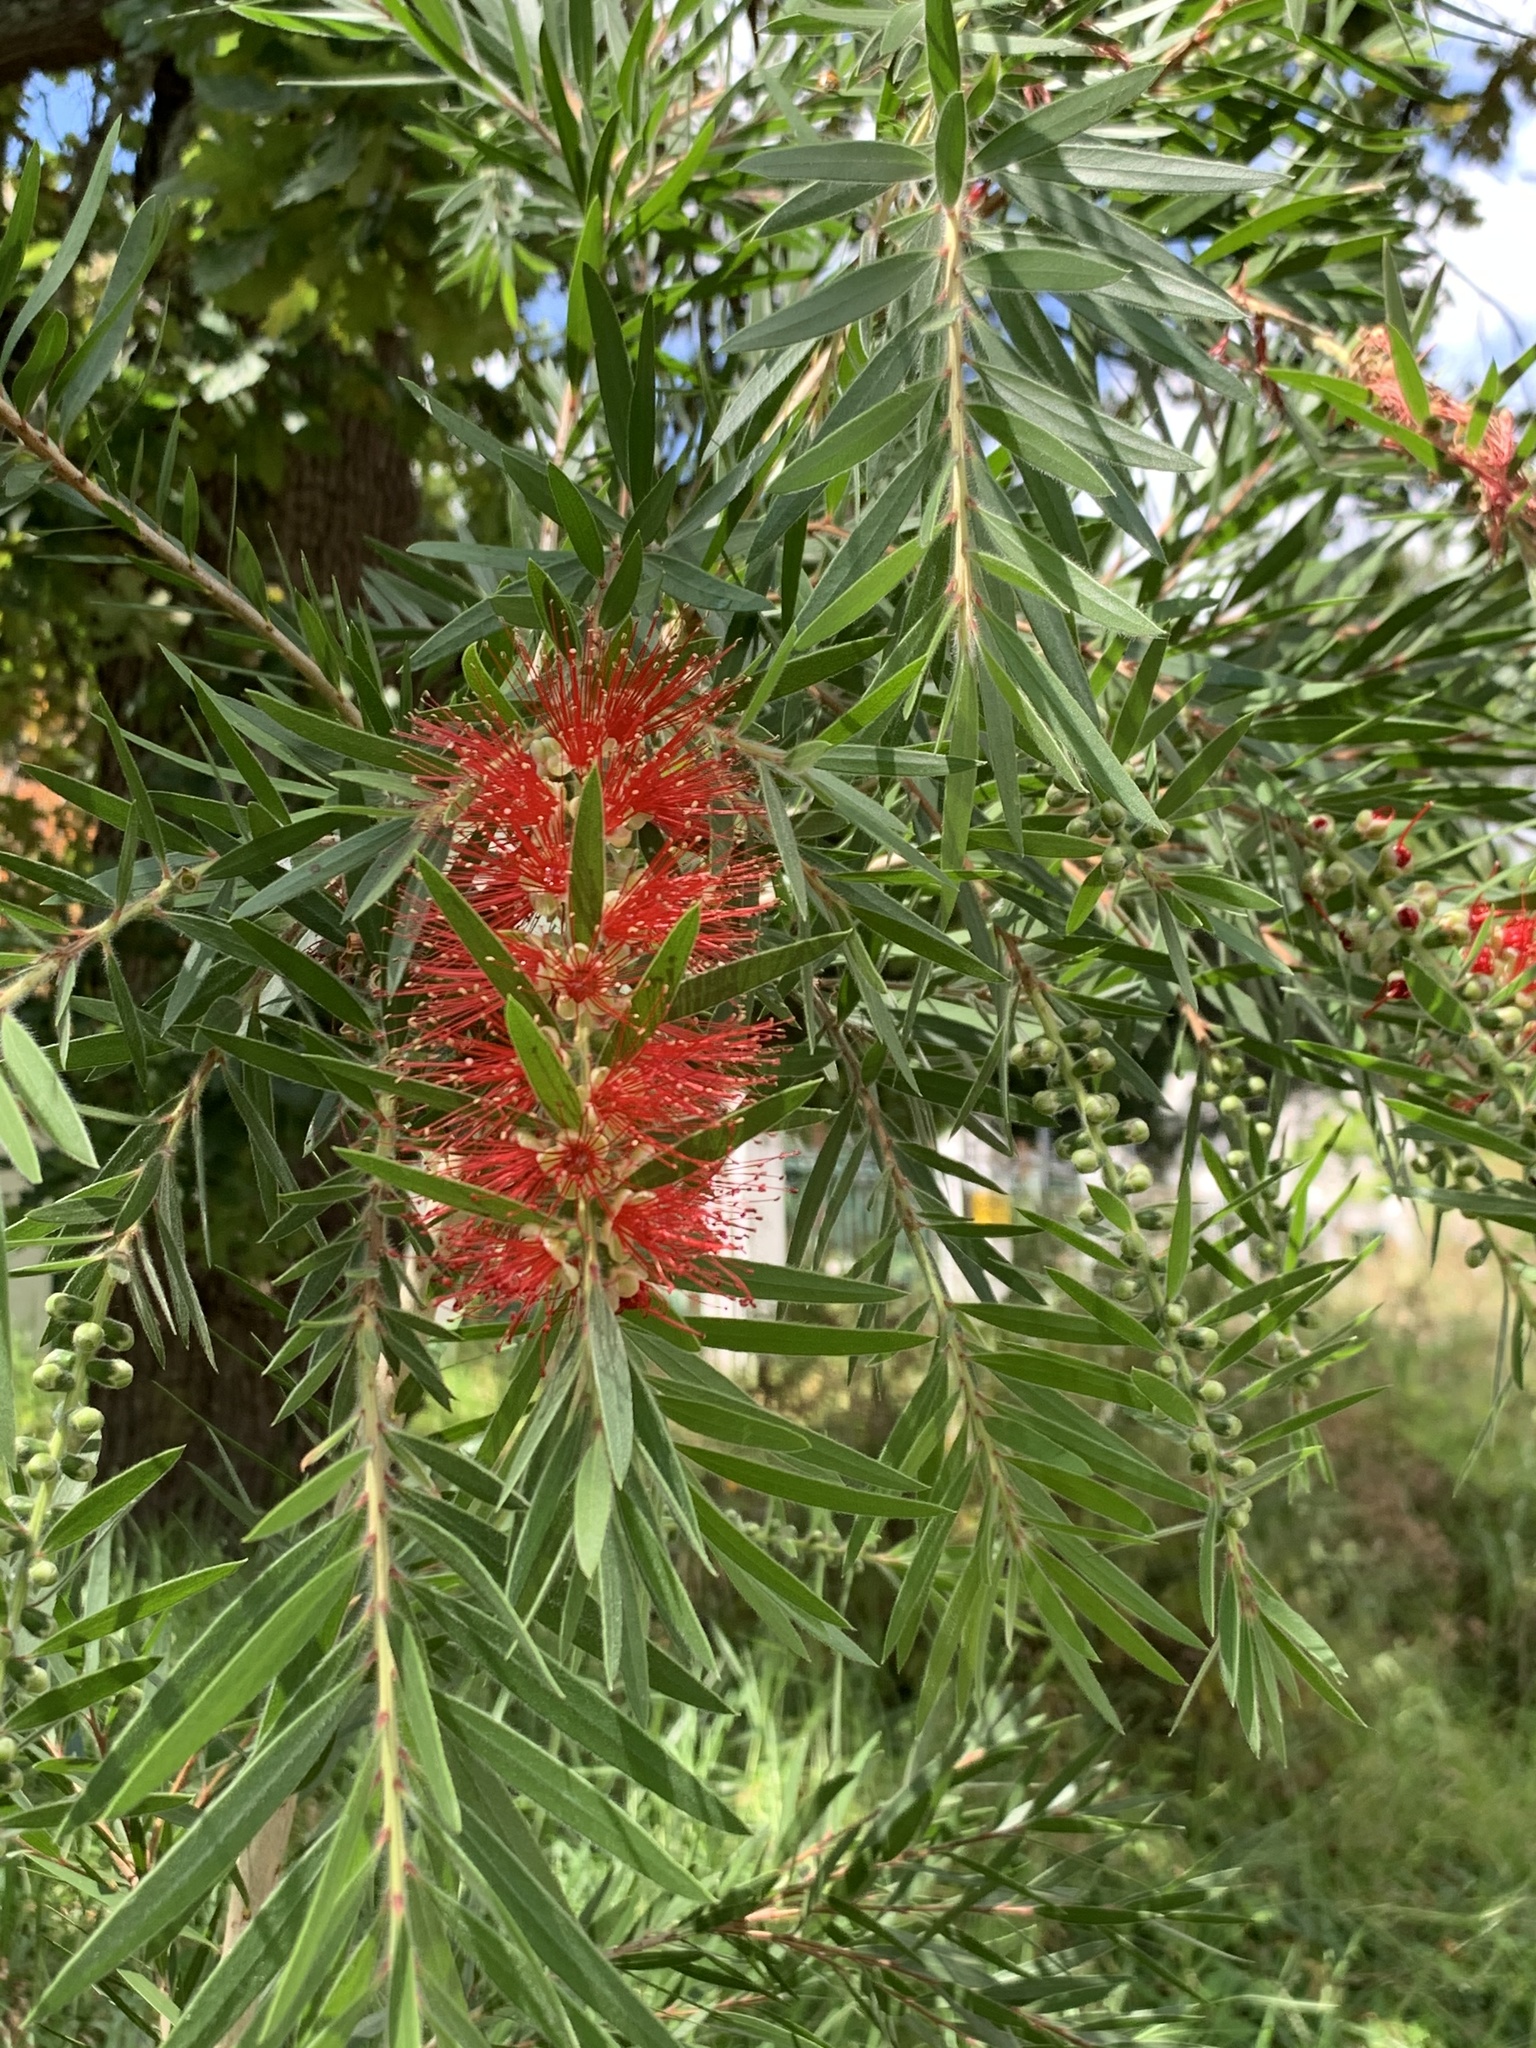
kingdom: Plantae
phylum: Tracheophyta
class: Magnoliopsida
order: Myrtales
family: Myrtaceae
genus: Callistemon
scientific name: Callistemon viminalis
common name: Drooping bottlebrush
